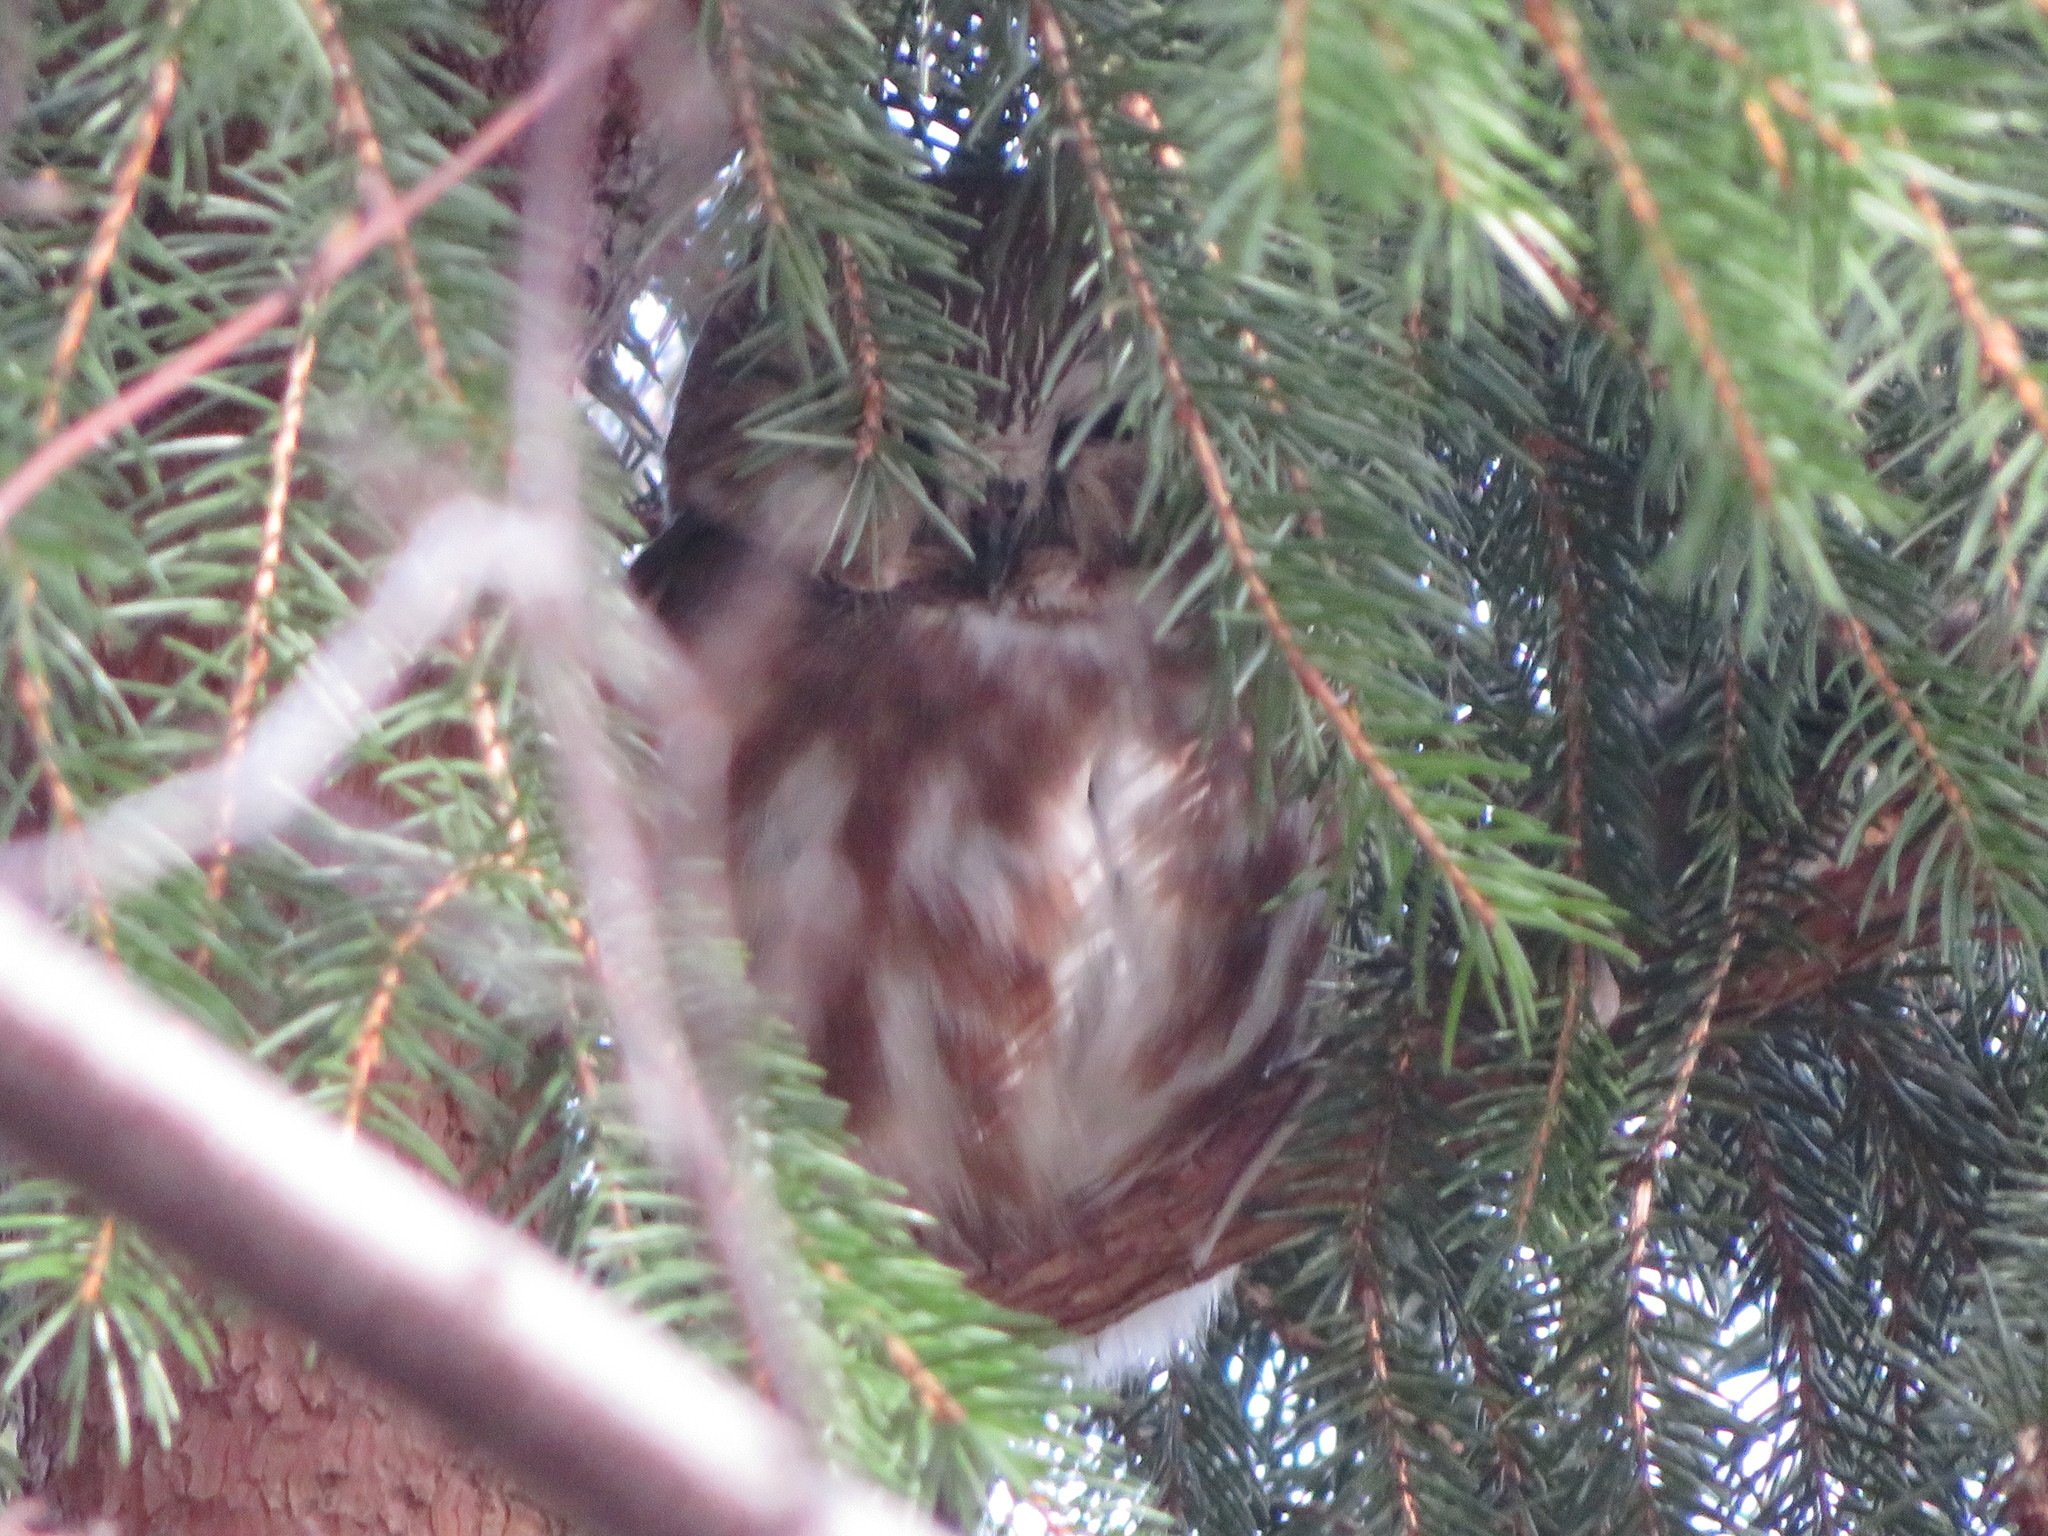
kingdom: Animalia
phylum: Chordata
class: Aves
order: Strigiformes
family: Strigidae
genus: Aegolius
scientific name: Aegolius acadicus
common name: Northern saw-whet owl
